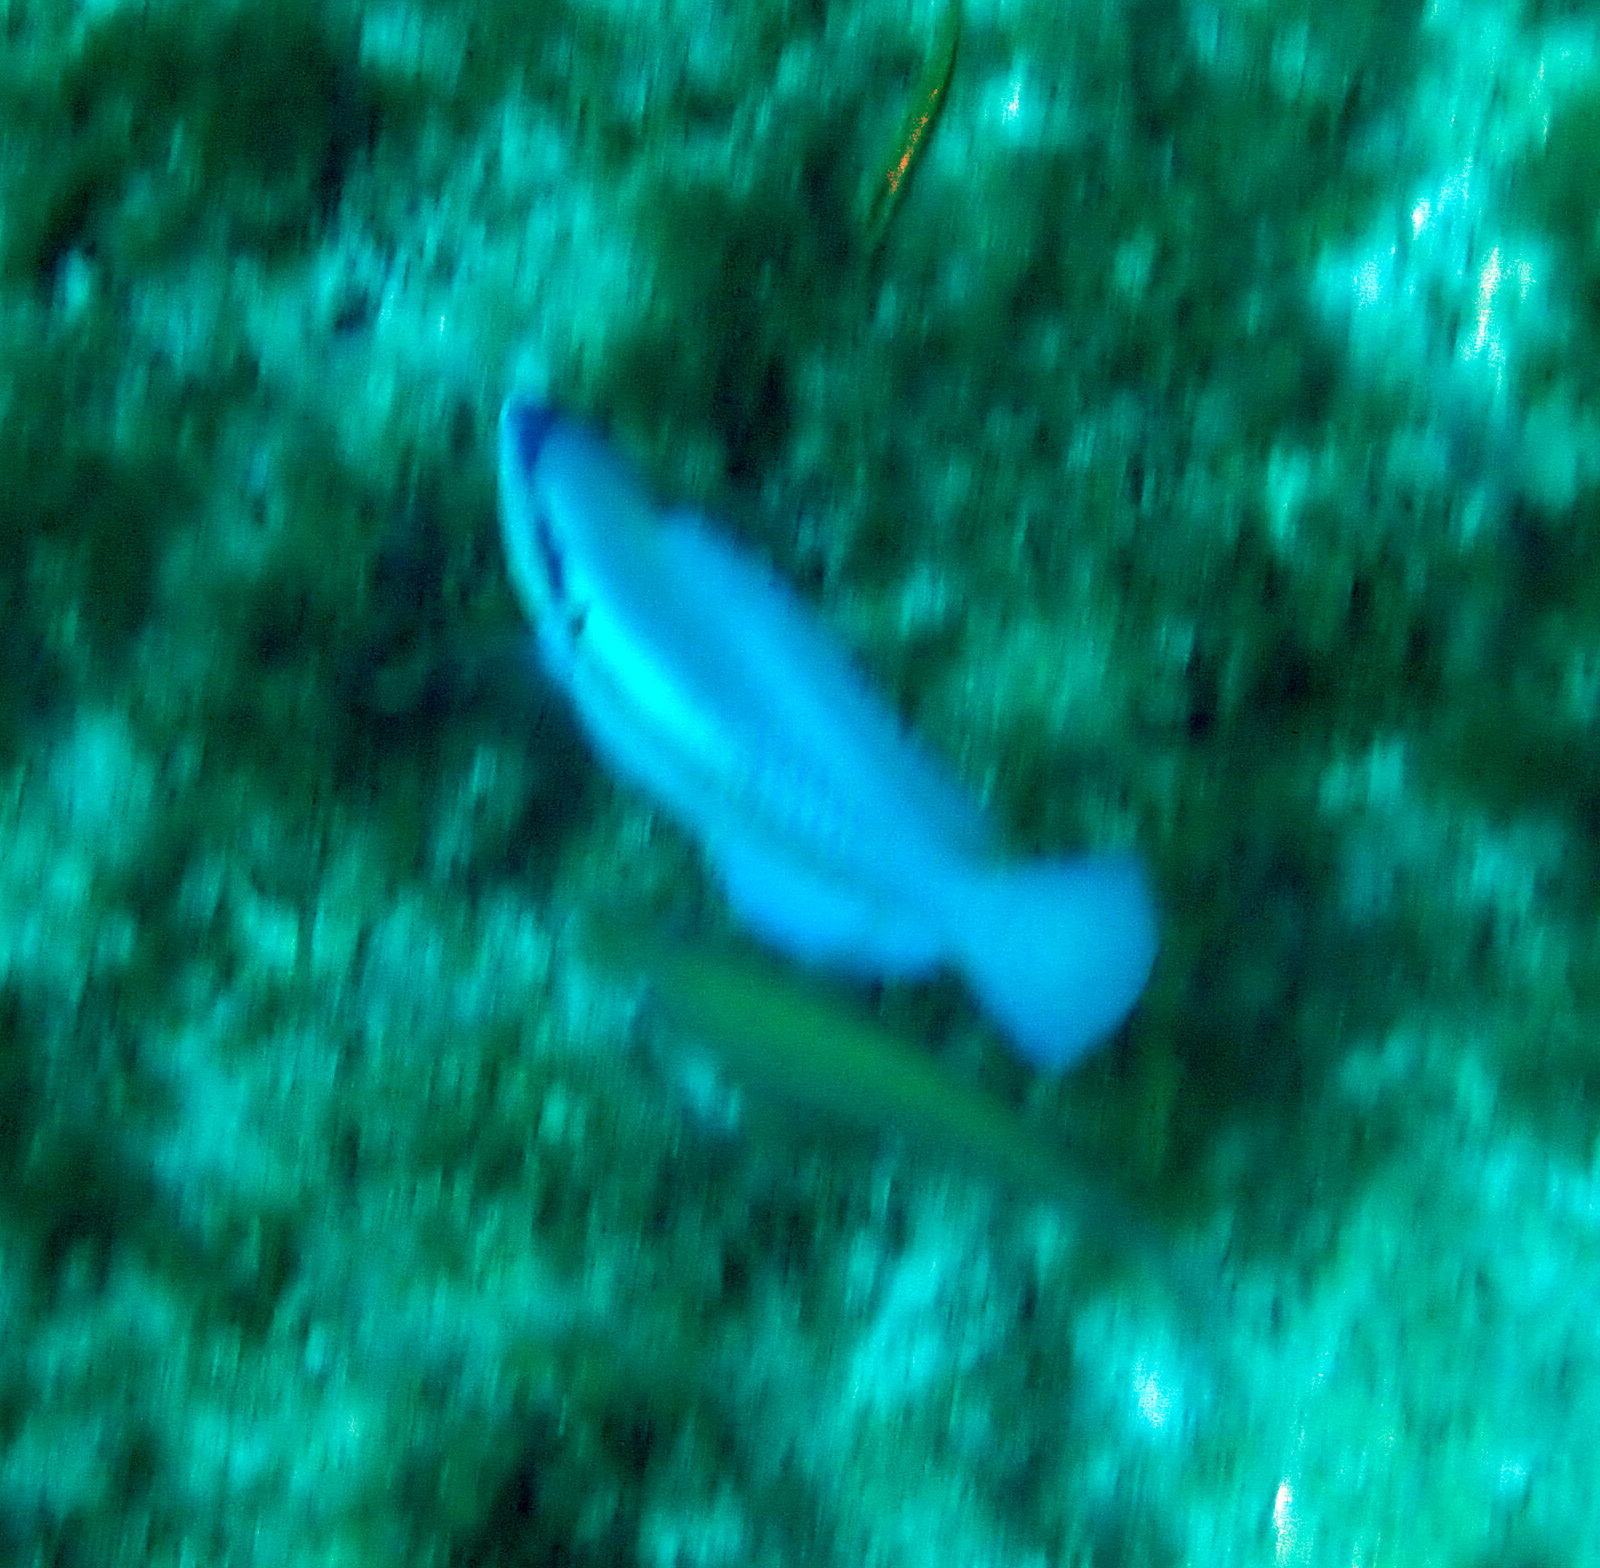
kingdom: Animalia
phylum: Chordata
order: Perciformes
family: Scaridae
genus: Scarus
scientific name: Scarus iseri
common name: Striped parrotfish
